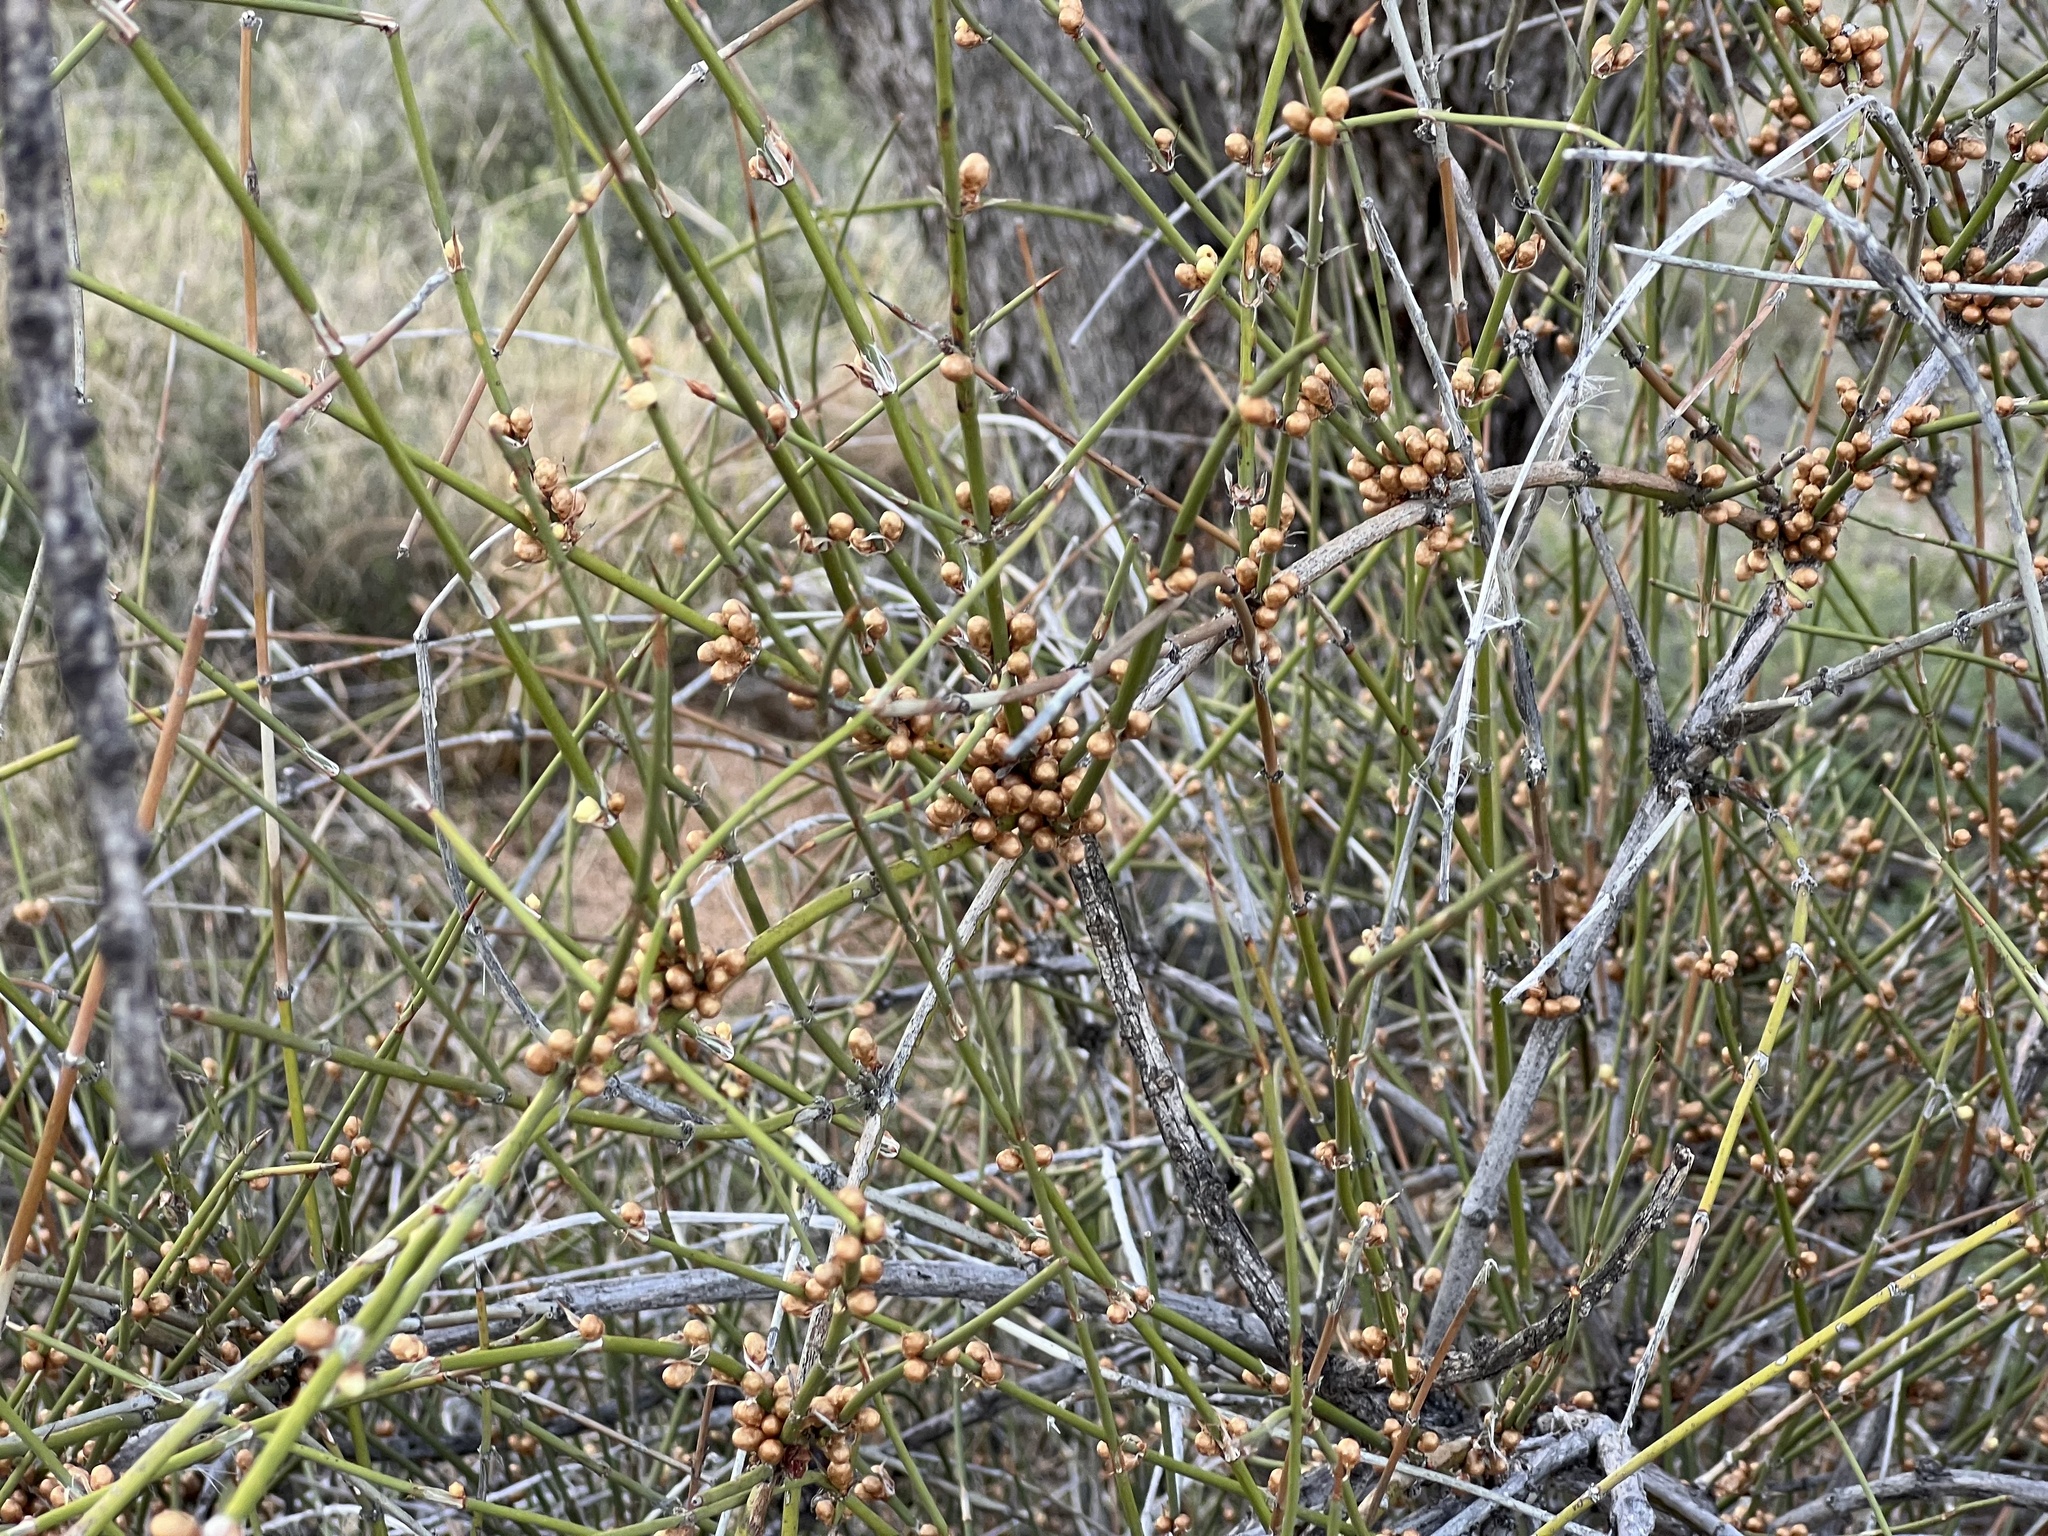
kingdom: Plantae
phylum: Tracheophyta
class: Gnetopsida
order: Ephedrales
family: Ephedraceae
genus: Ephedra
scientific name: Ephedra trifurca
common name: Mexican-tea
